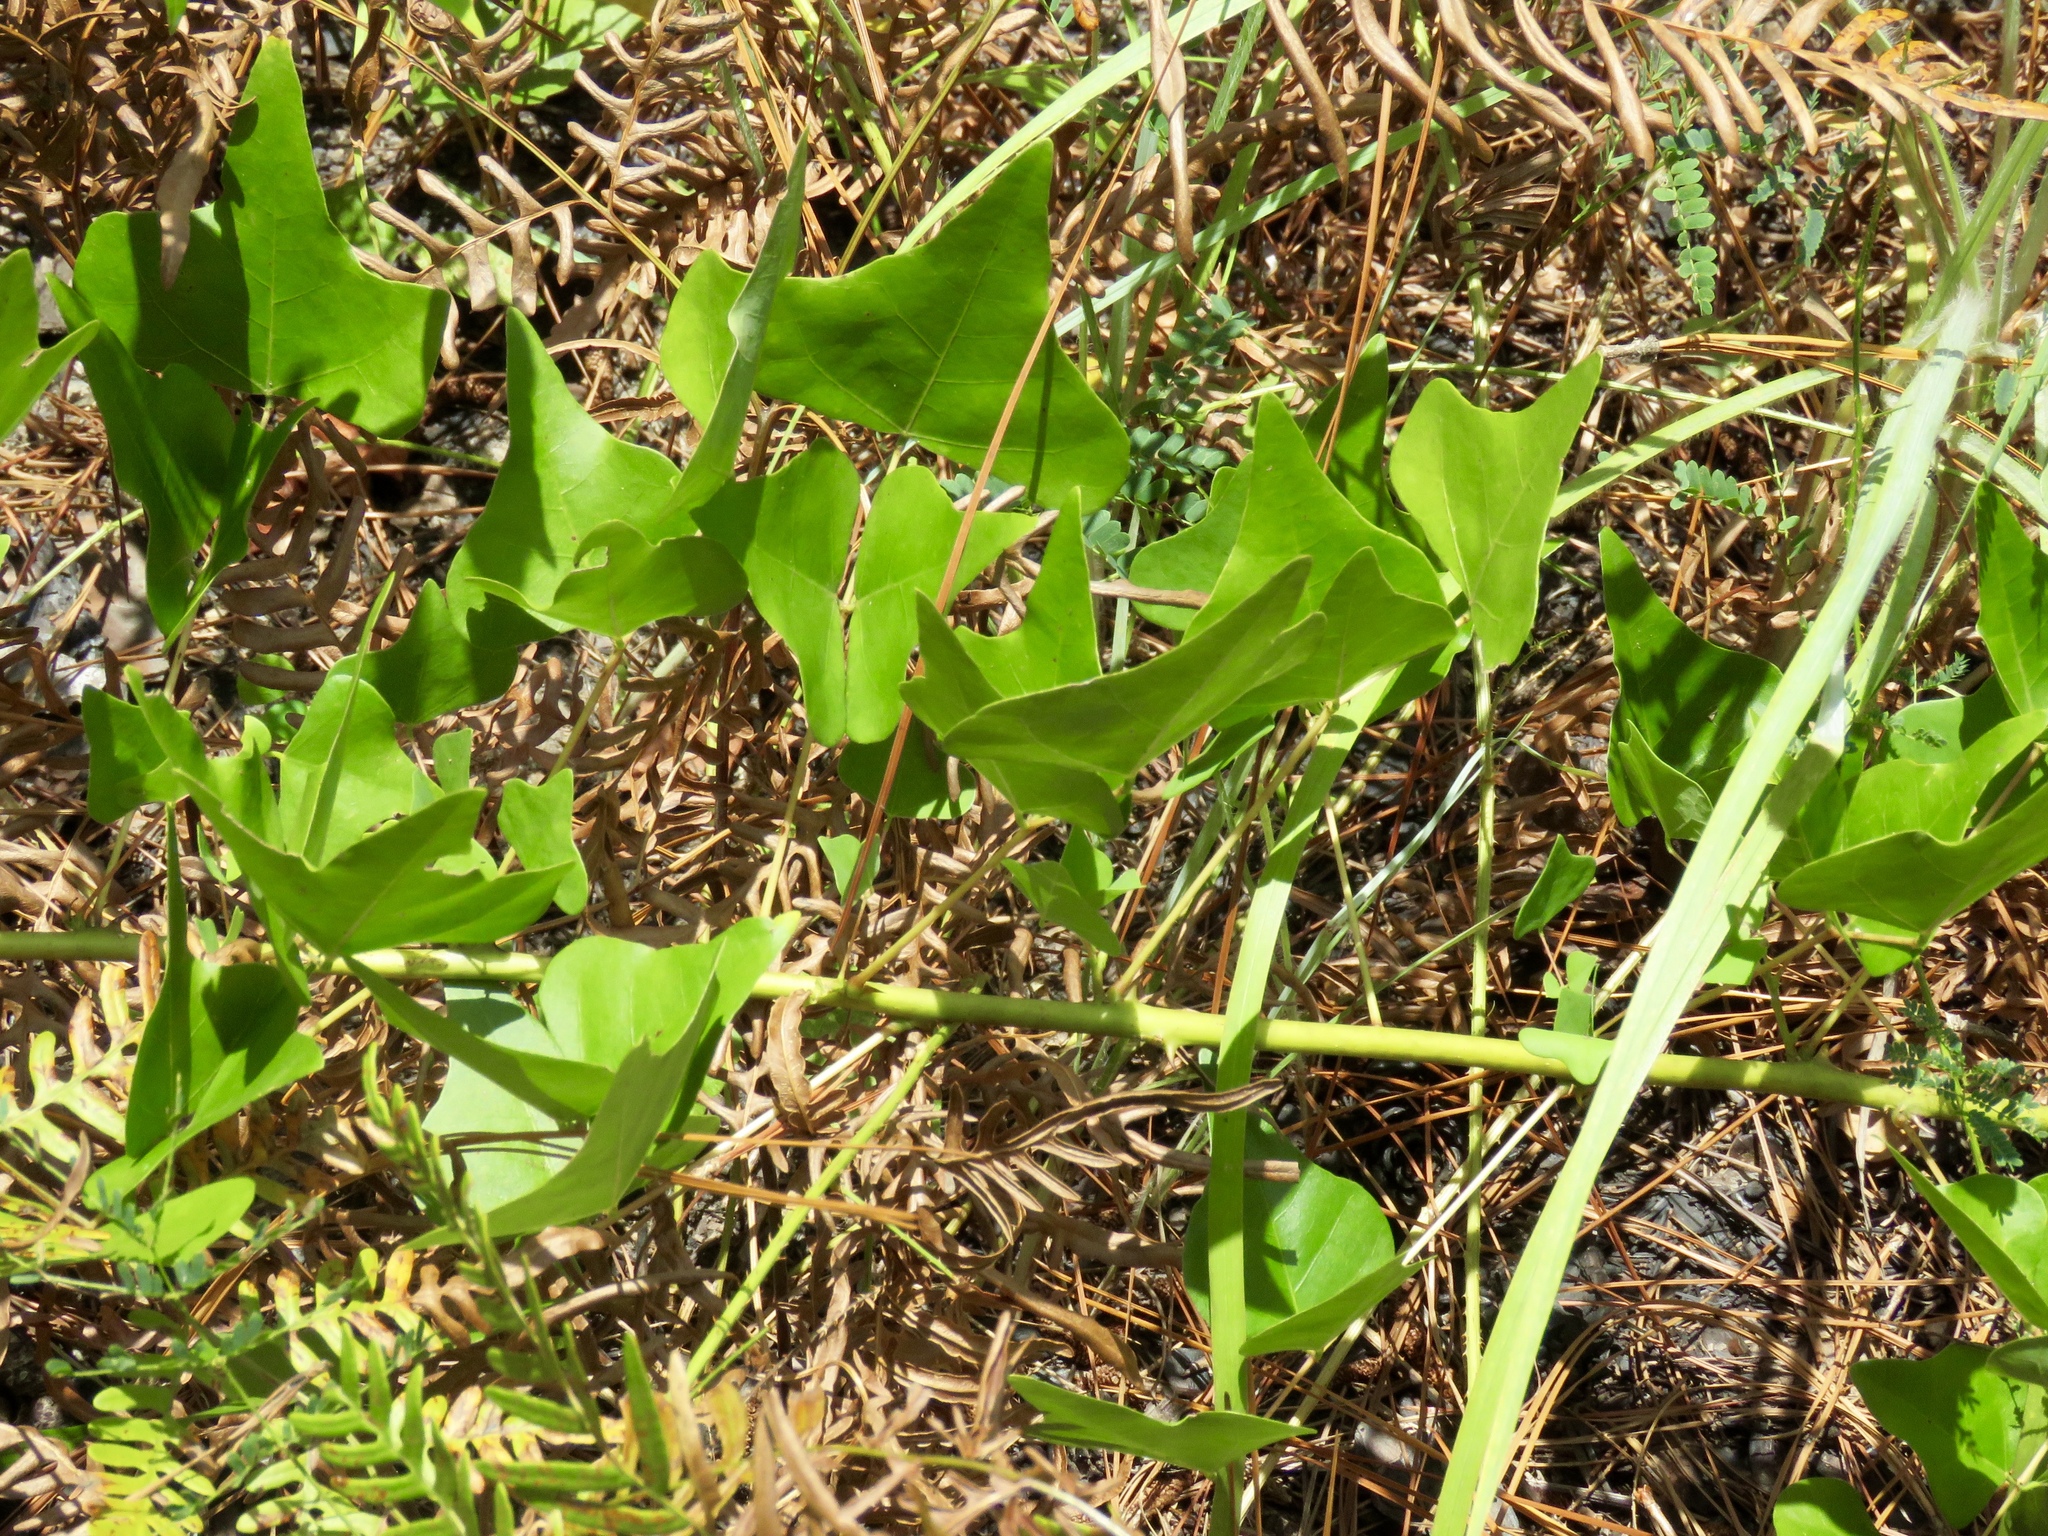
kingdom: Plantae
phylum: Tracheophyta
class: Magnoliopsida
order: Fabales
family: Fabaceae
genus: Erythrina
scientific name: Erythrina herbacea
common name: Coral-bean
